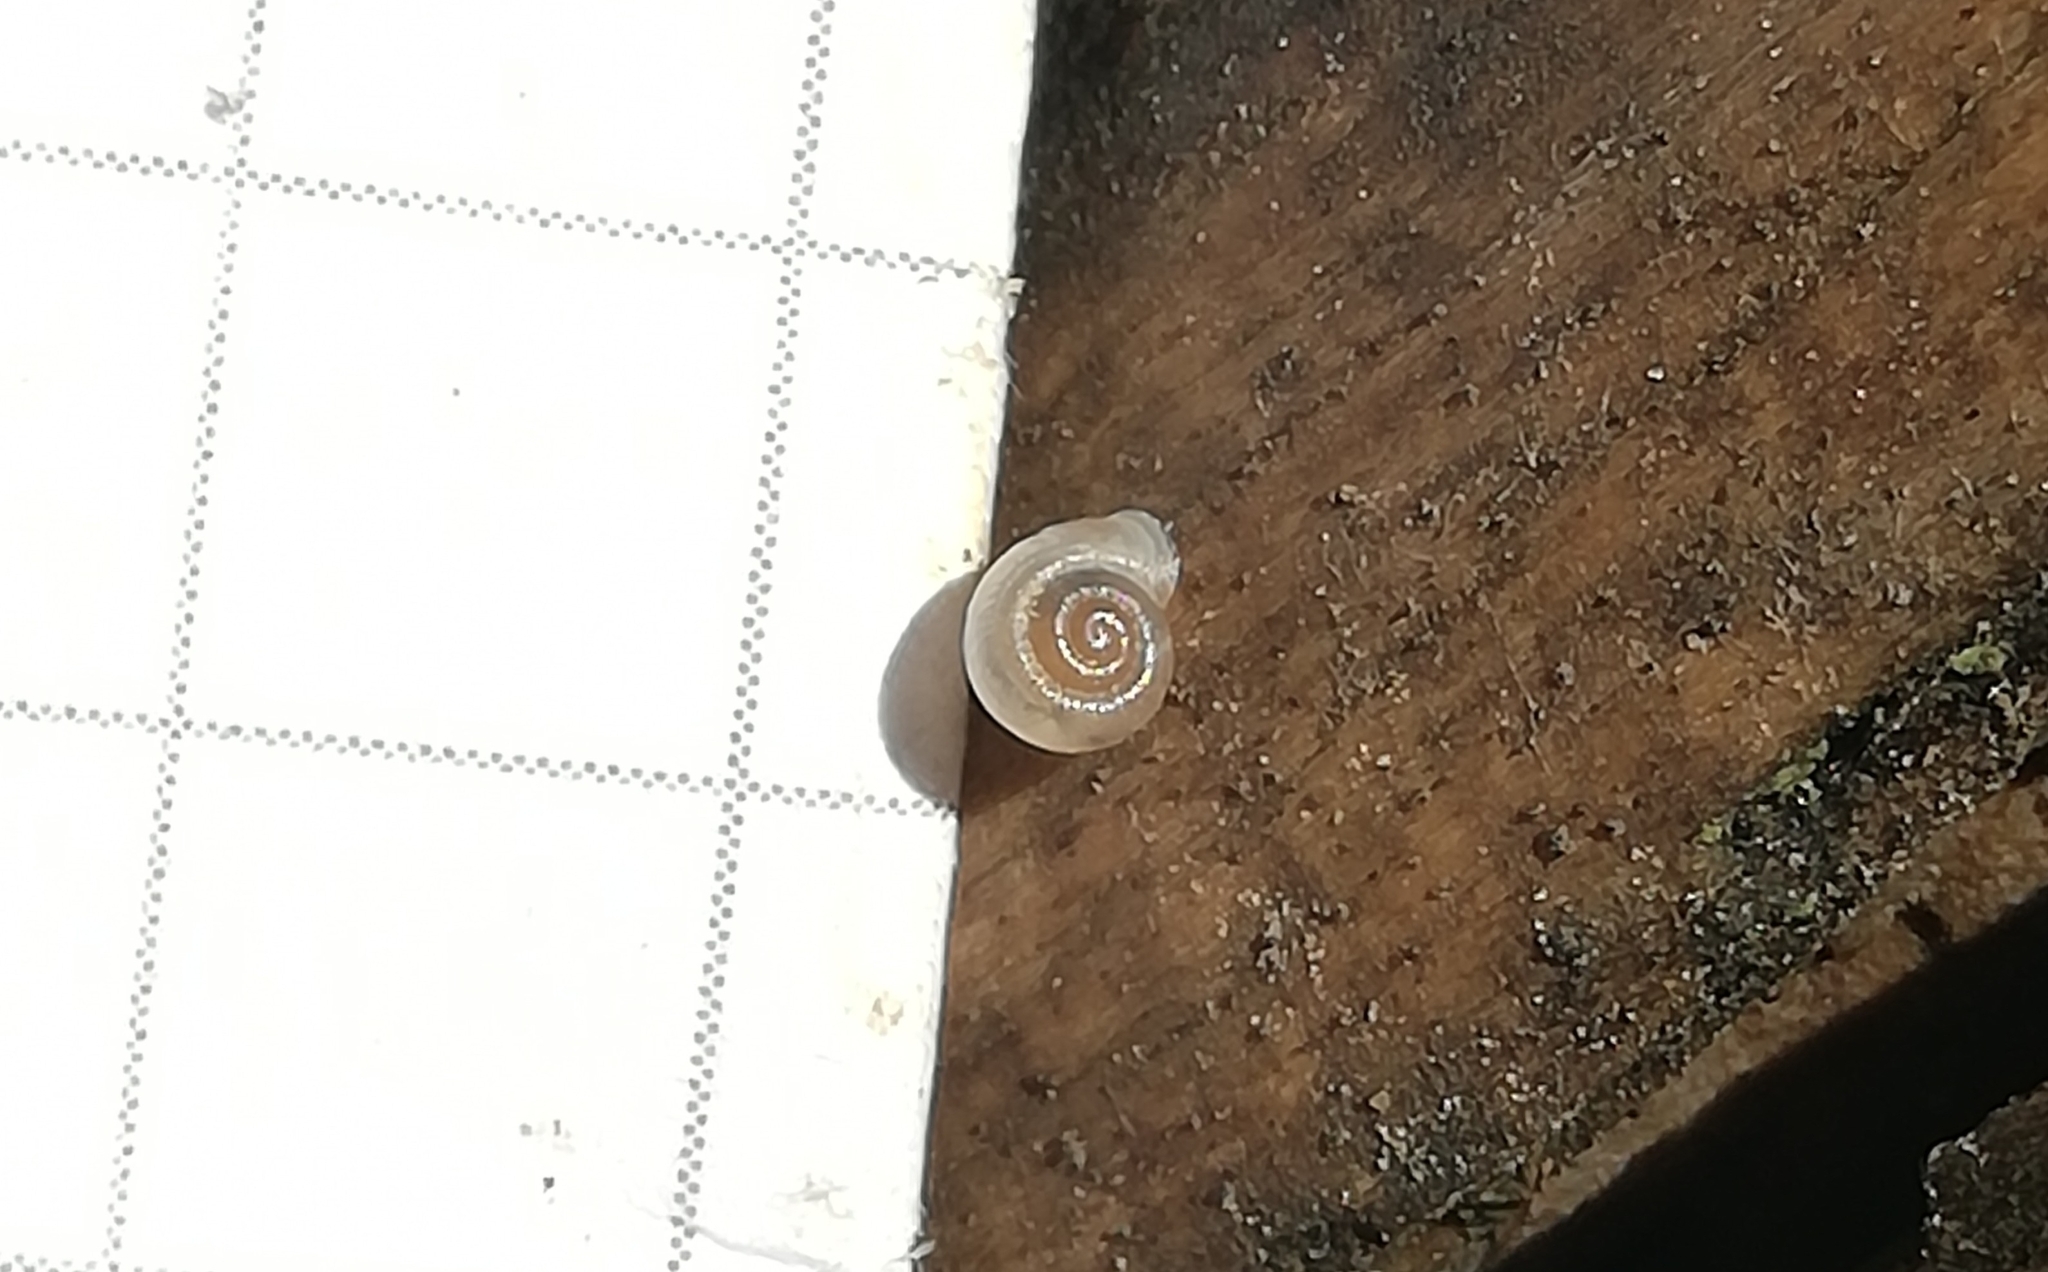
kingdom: Animalia
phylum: Mollusca
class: Gastropoda
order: Stylommatophora
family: Valloniidae
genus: Vallonia
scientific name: Vallonia pulchella
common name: Smooth grass snail
